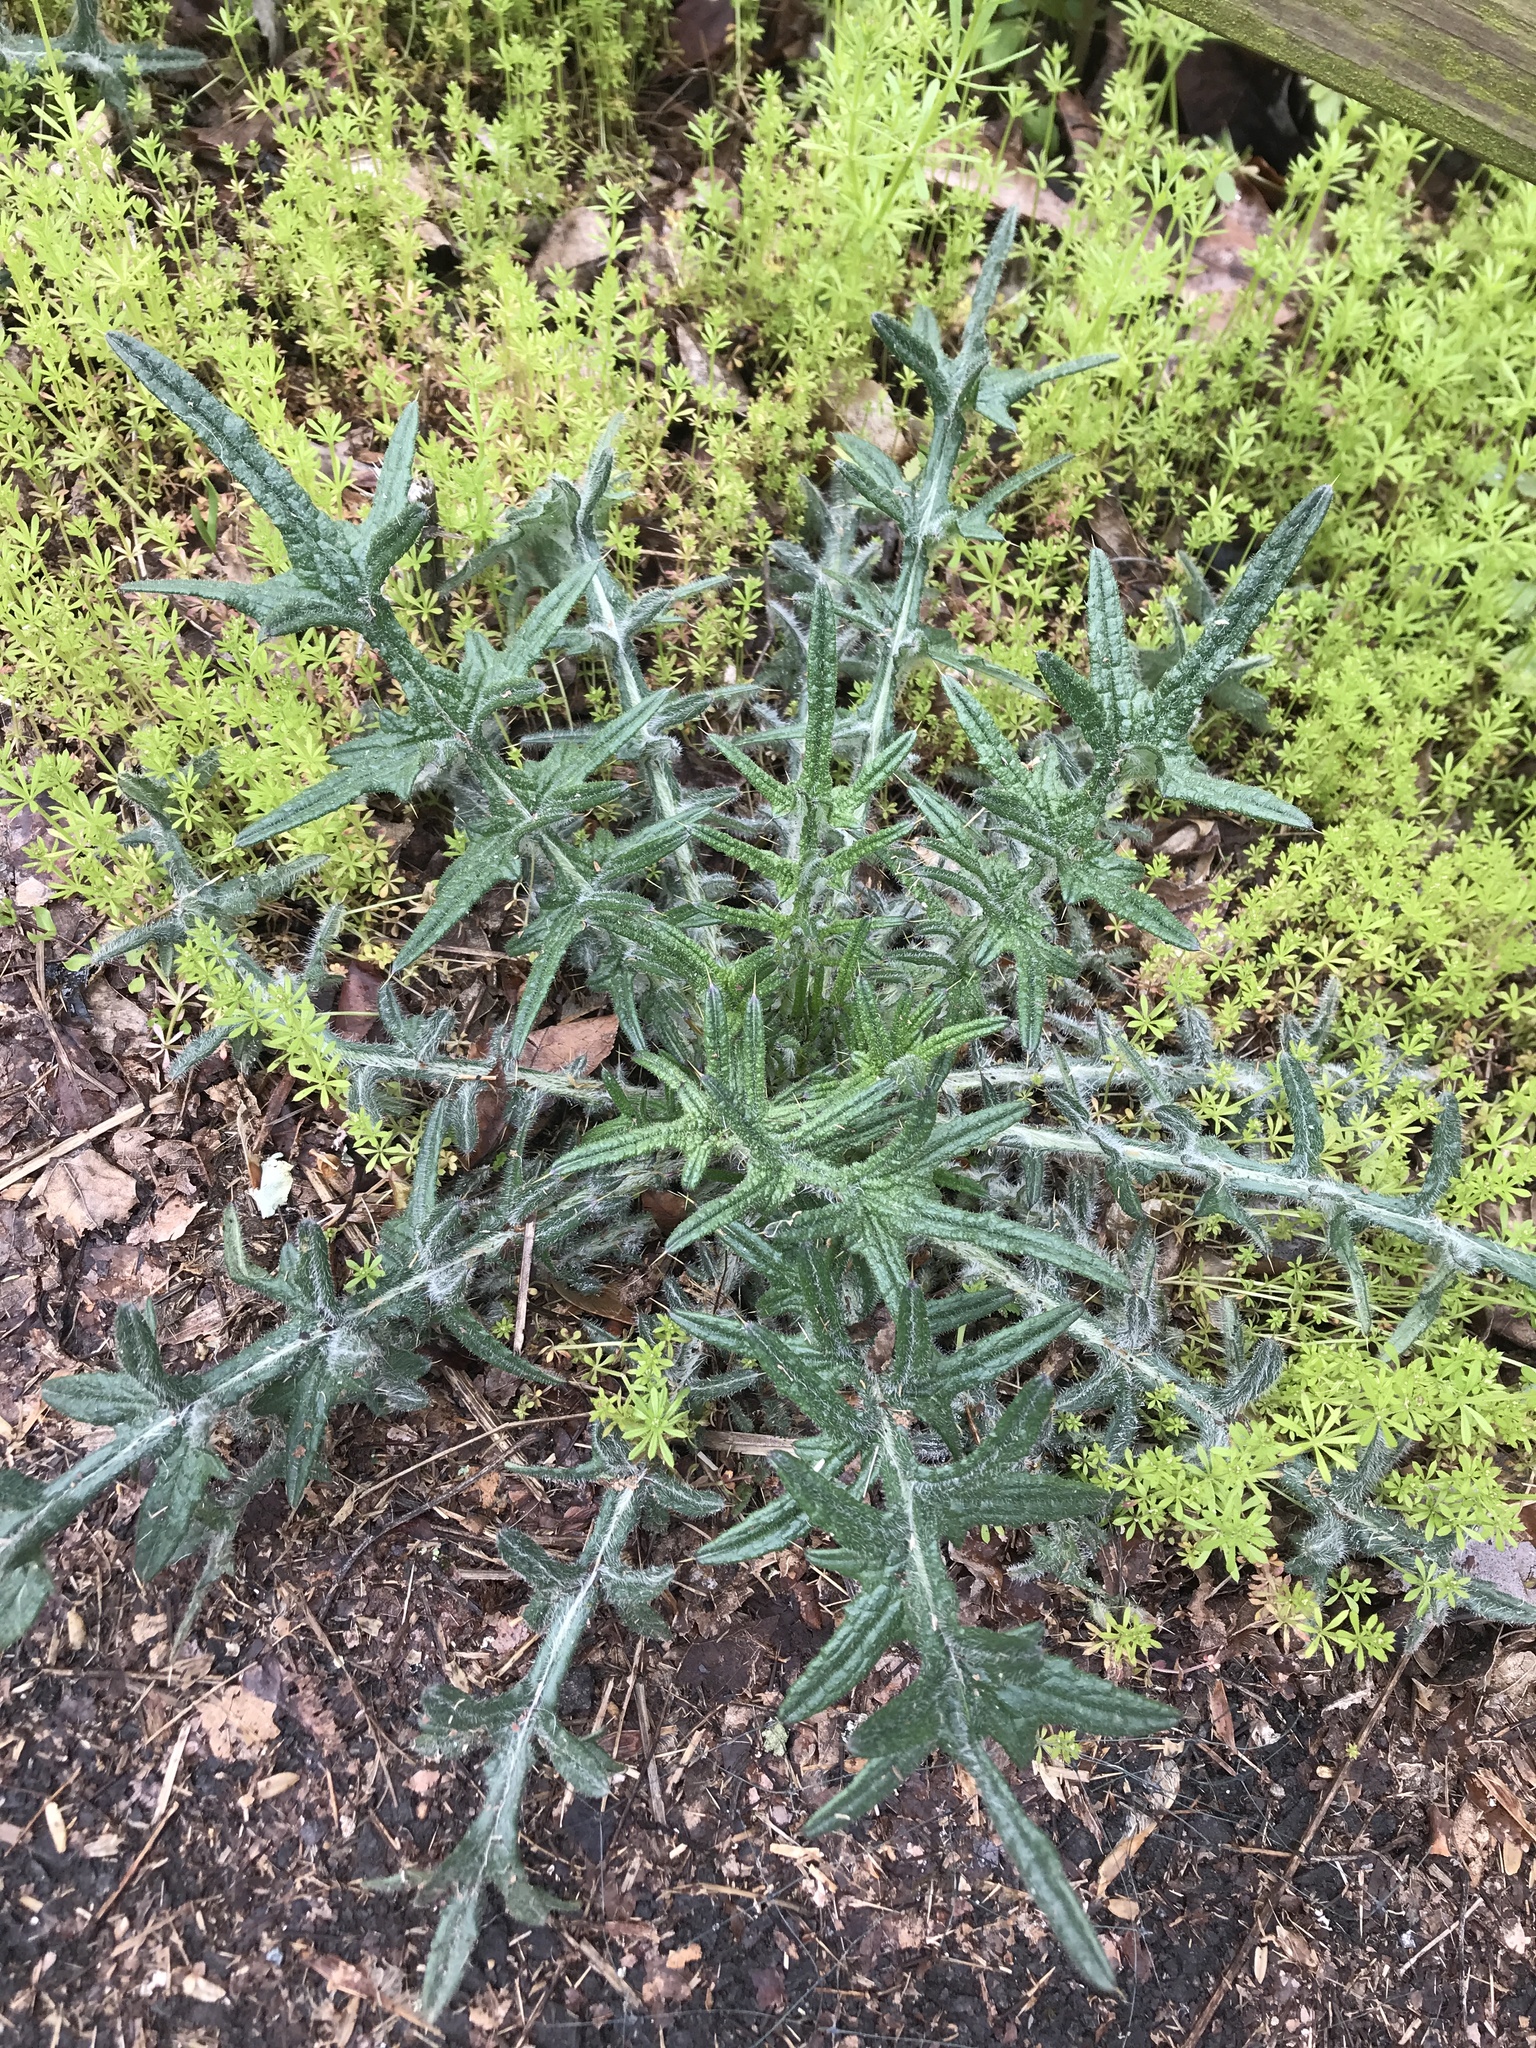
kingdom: Plantae
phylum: Tracheophyta
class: Magnoliopsida
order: Asterales
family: Asteraceae
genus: Cirsium
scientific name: Cirsium vulgare
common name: Bull thistle
